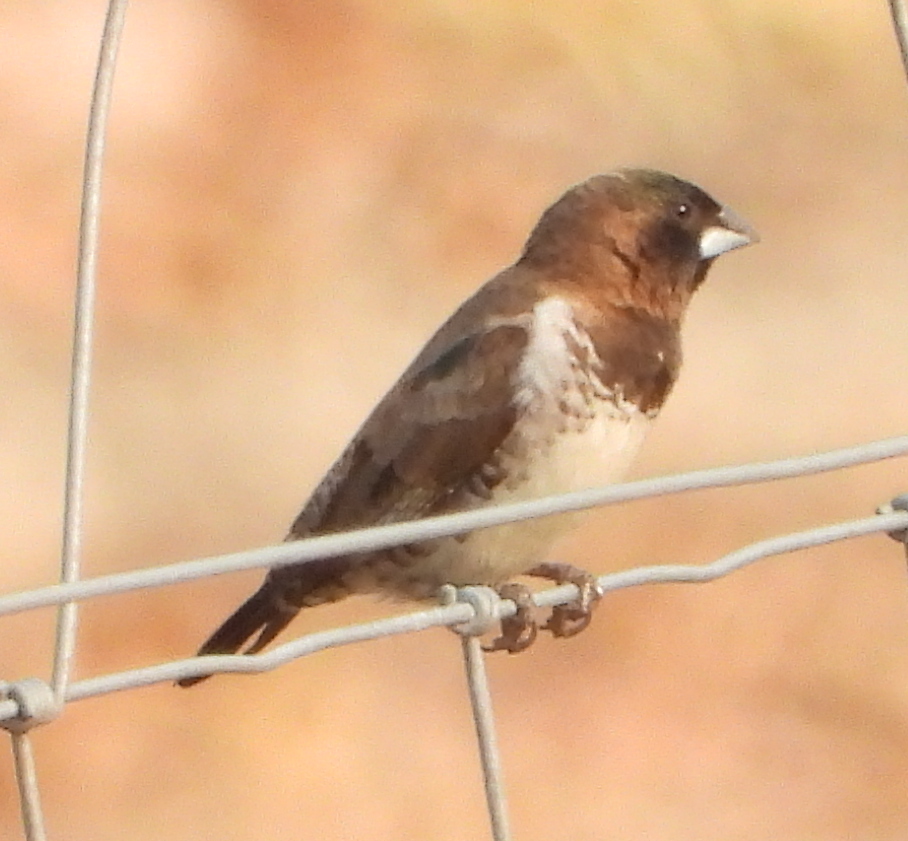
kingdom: Animalia
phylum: Chordata
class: Aves
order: Passeriformes
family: Estrildidae
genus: Lonchura
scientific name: Lonchura cucullata
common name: Bronze mannikin
